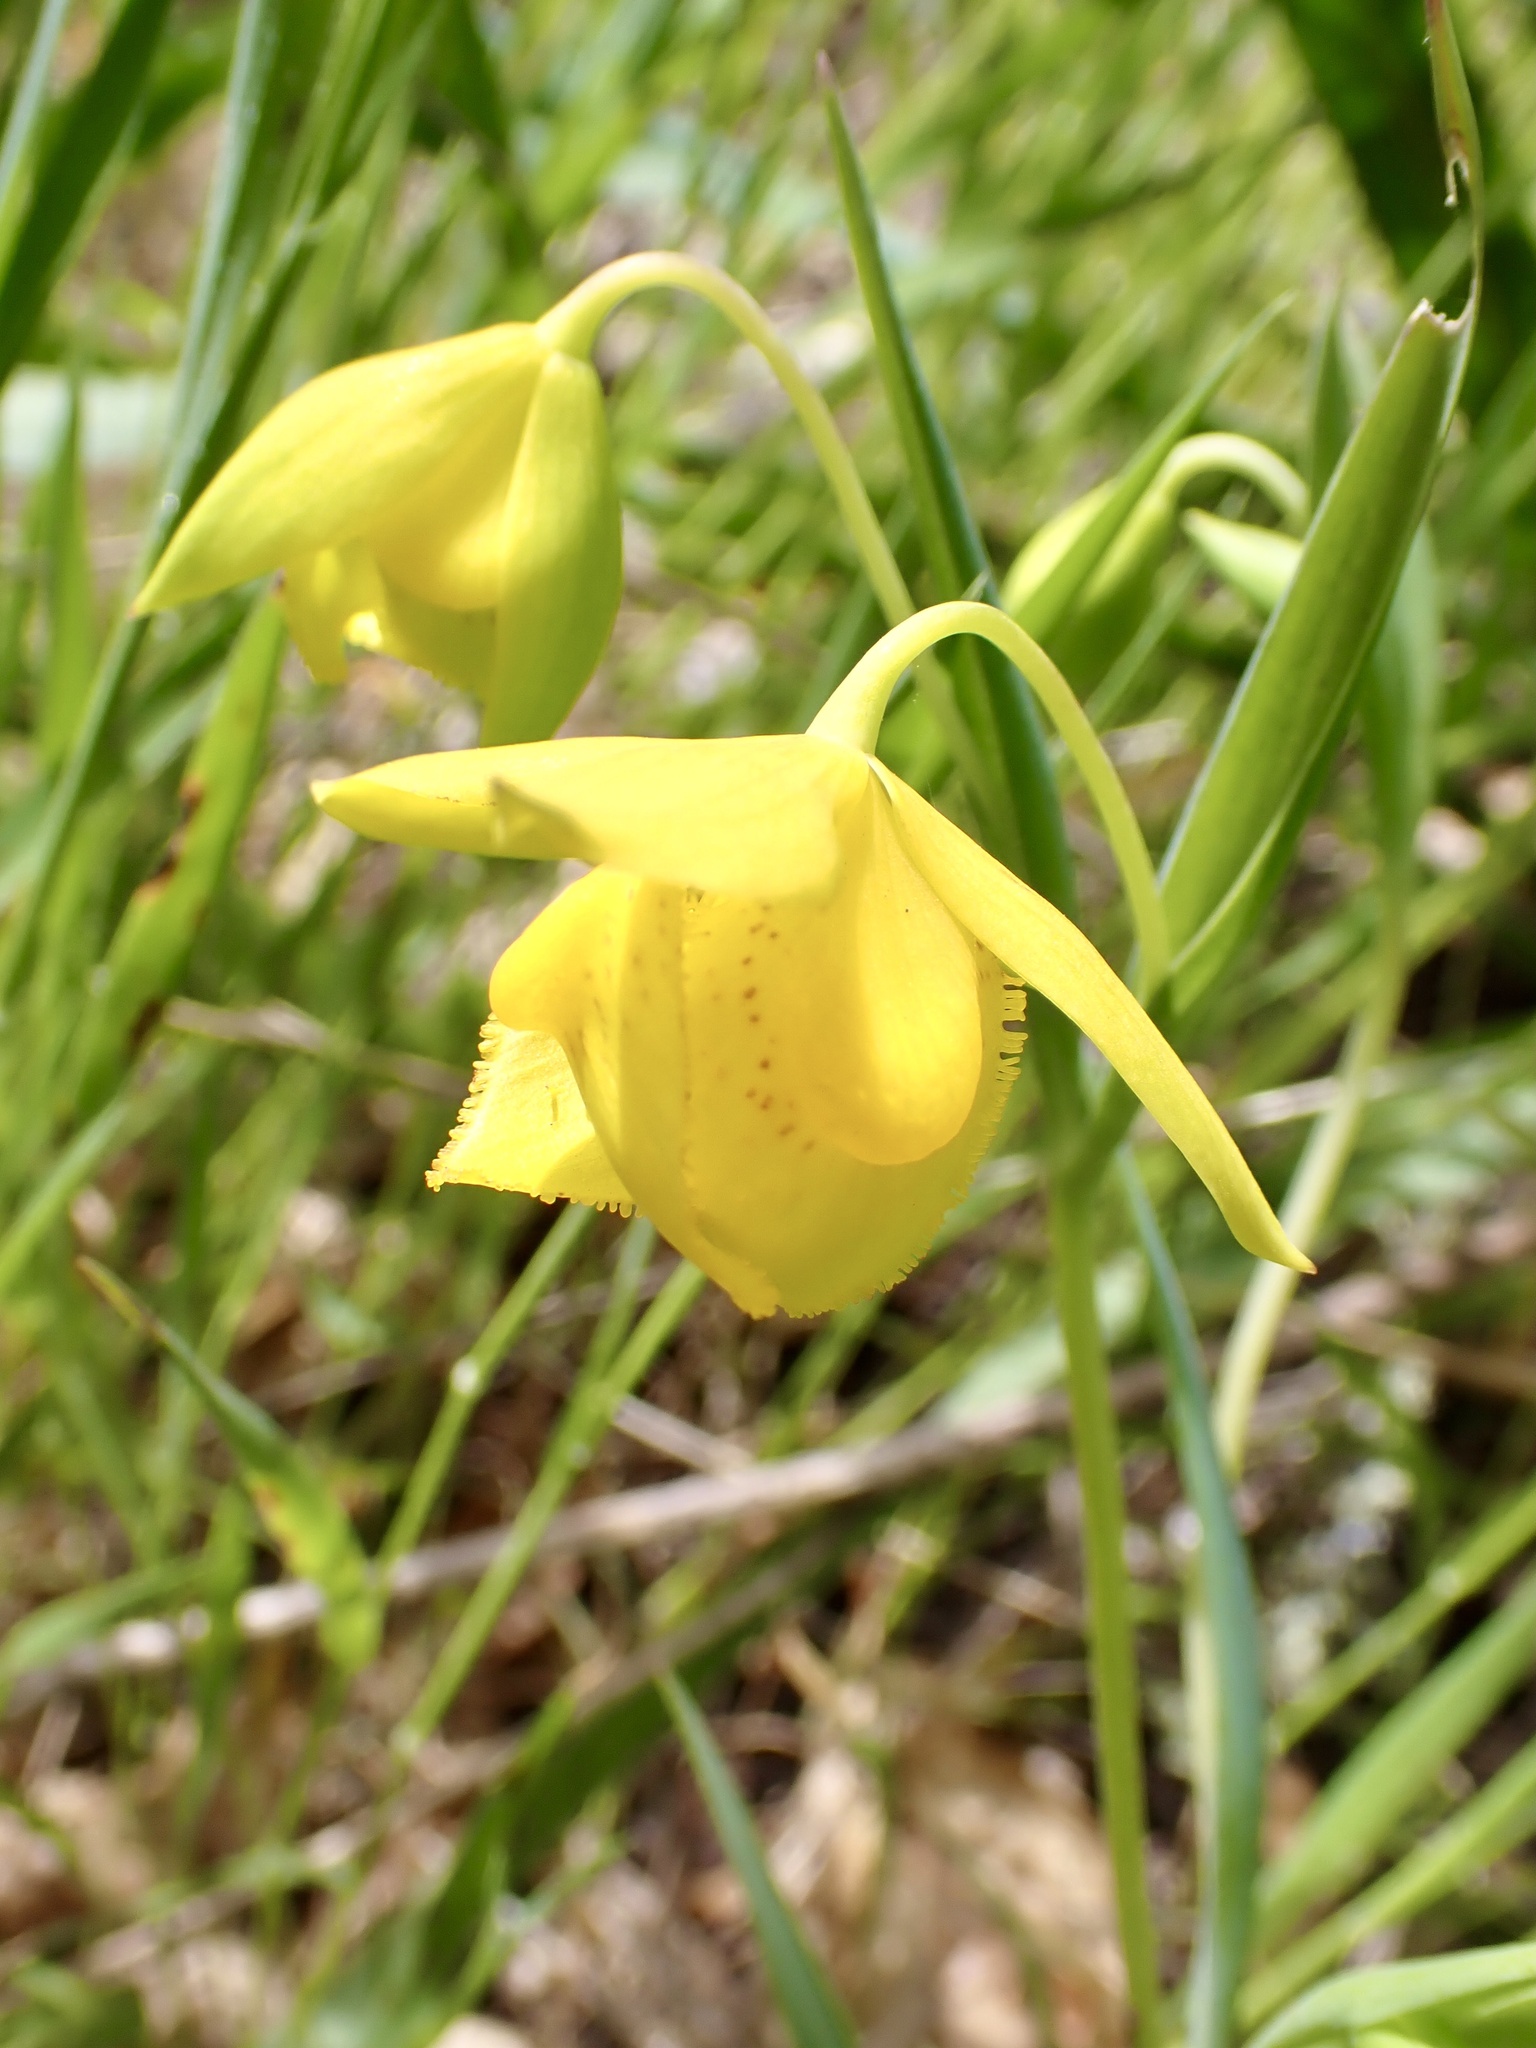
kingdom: Plantae
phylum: Tracheophyta
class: Liliopsida
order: Liliales
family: Liliaceae
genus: Calochortus
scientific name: Calochortus amabilis
